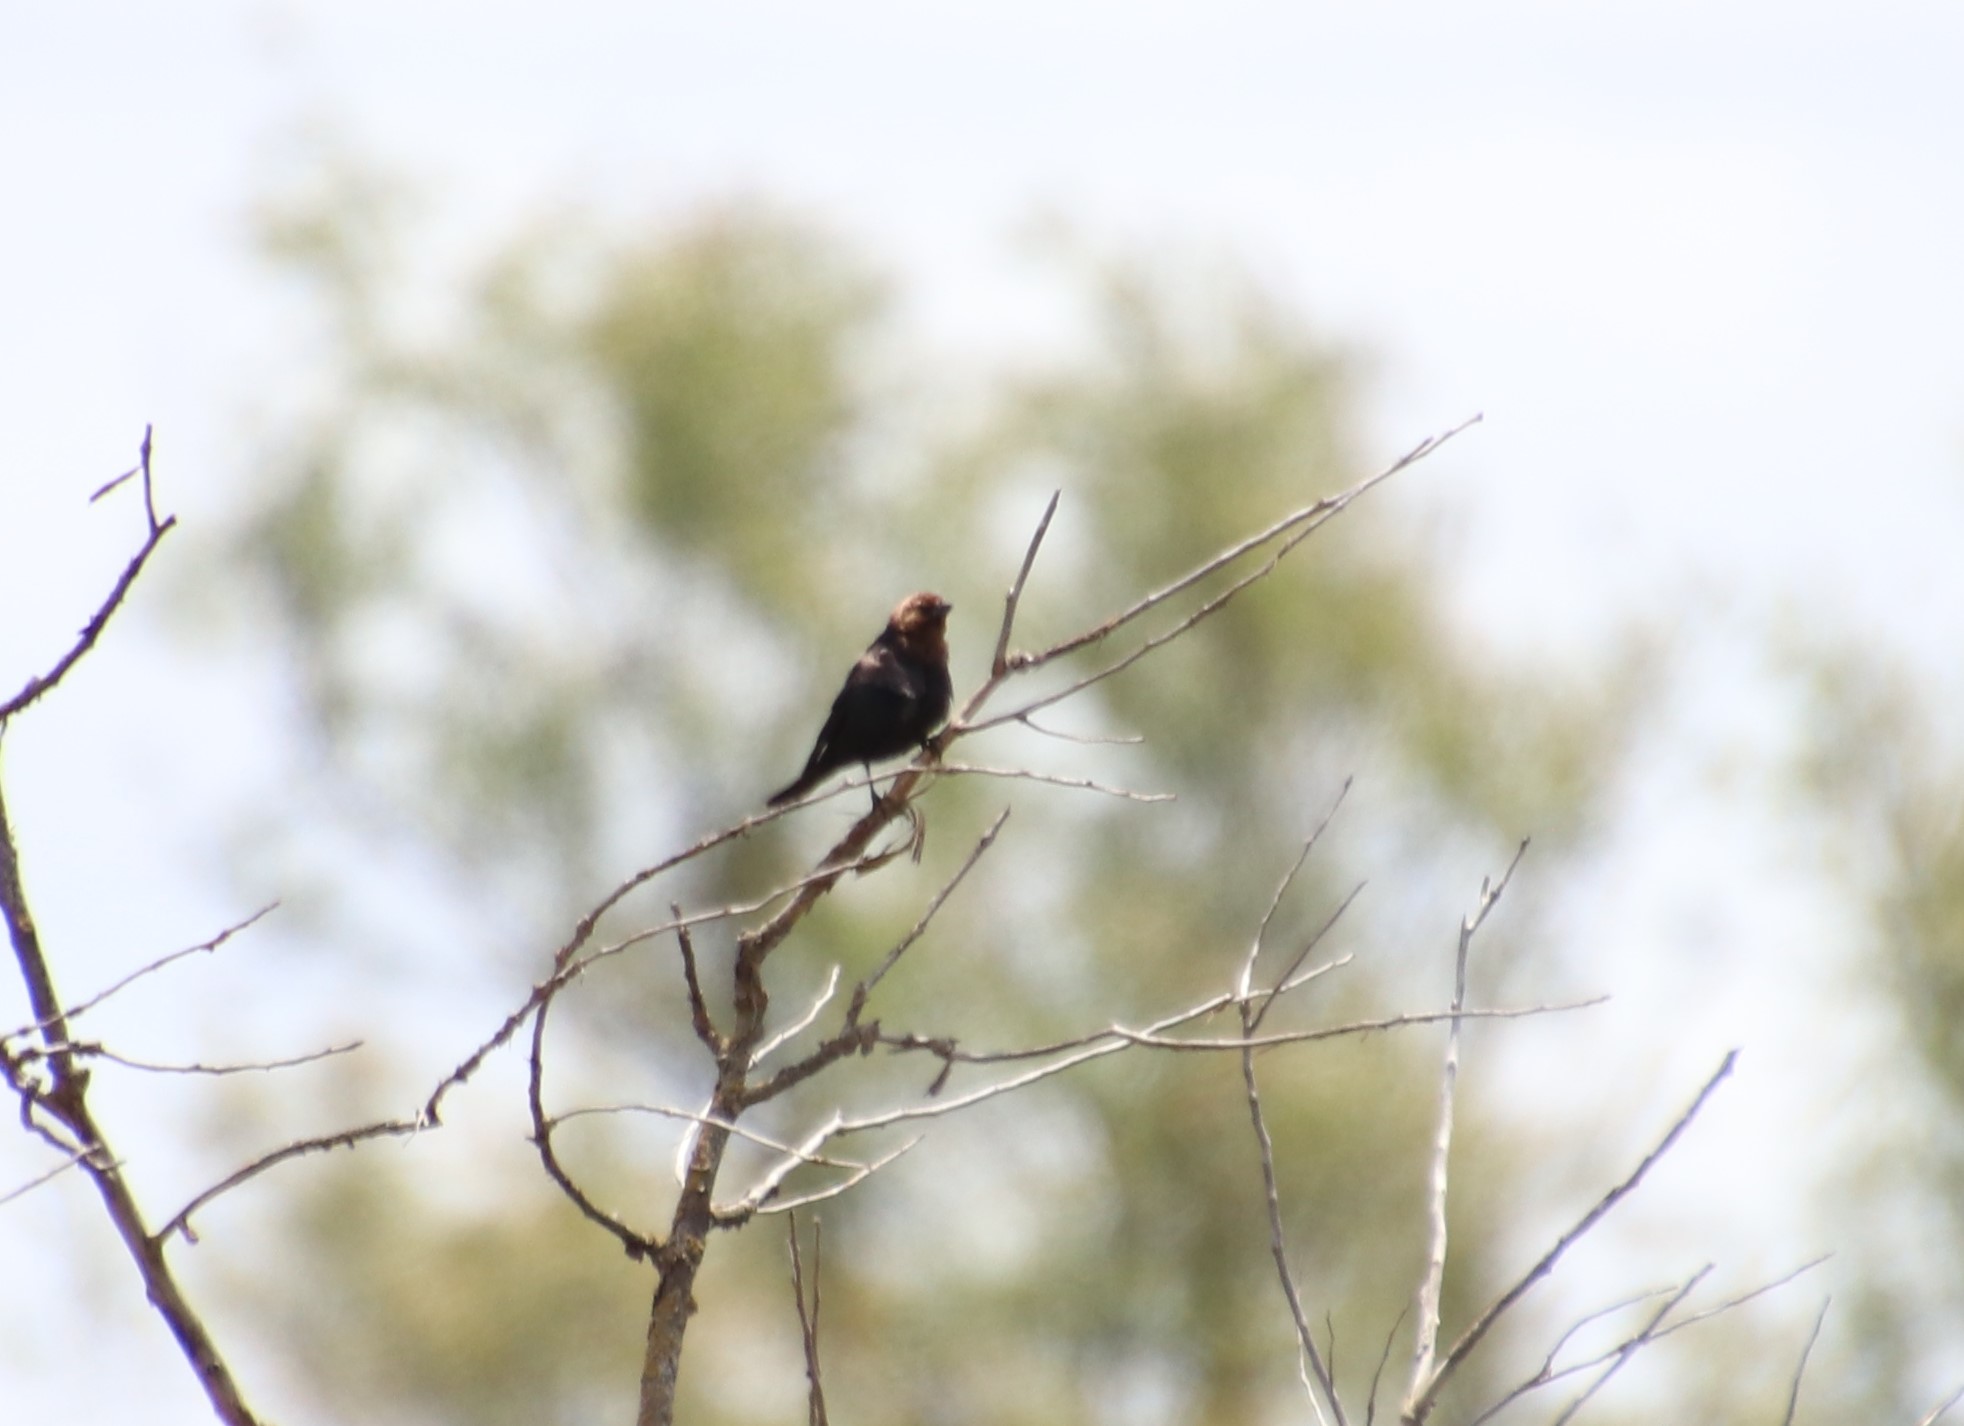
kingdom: Animalia
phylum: Chordata
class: Aves
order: Passeriformes
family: Icteridae
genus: Molothrus
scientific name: Molothrus ater
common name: Brown-headed cowbird
